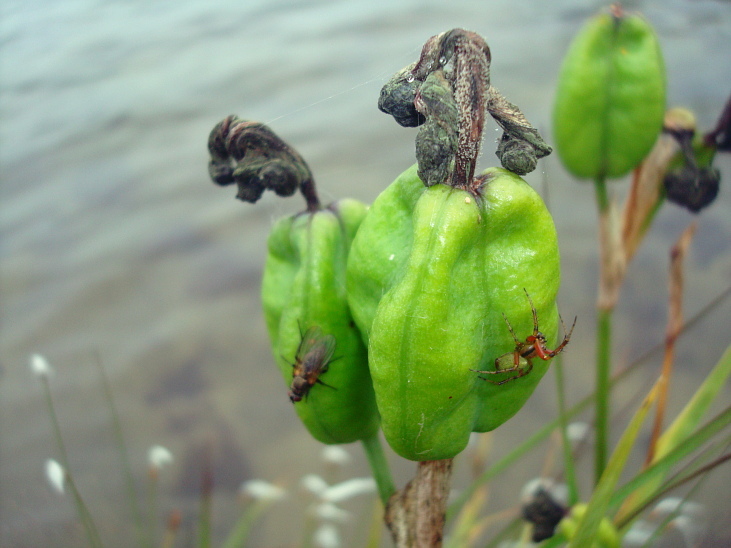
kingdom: Plantae
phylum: Tracheophyta
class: Liliopsida
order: Asparagales
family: Iridaceae
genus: Iris
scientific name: Iris setosa
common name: Arctic blue flag
